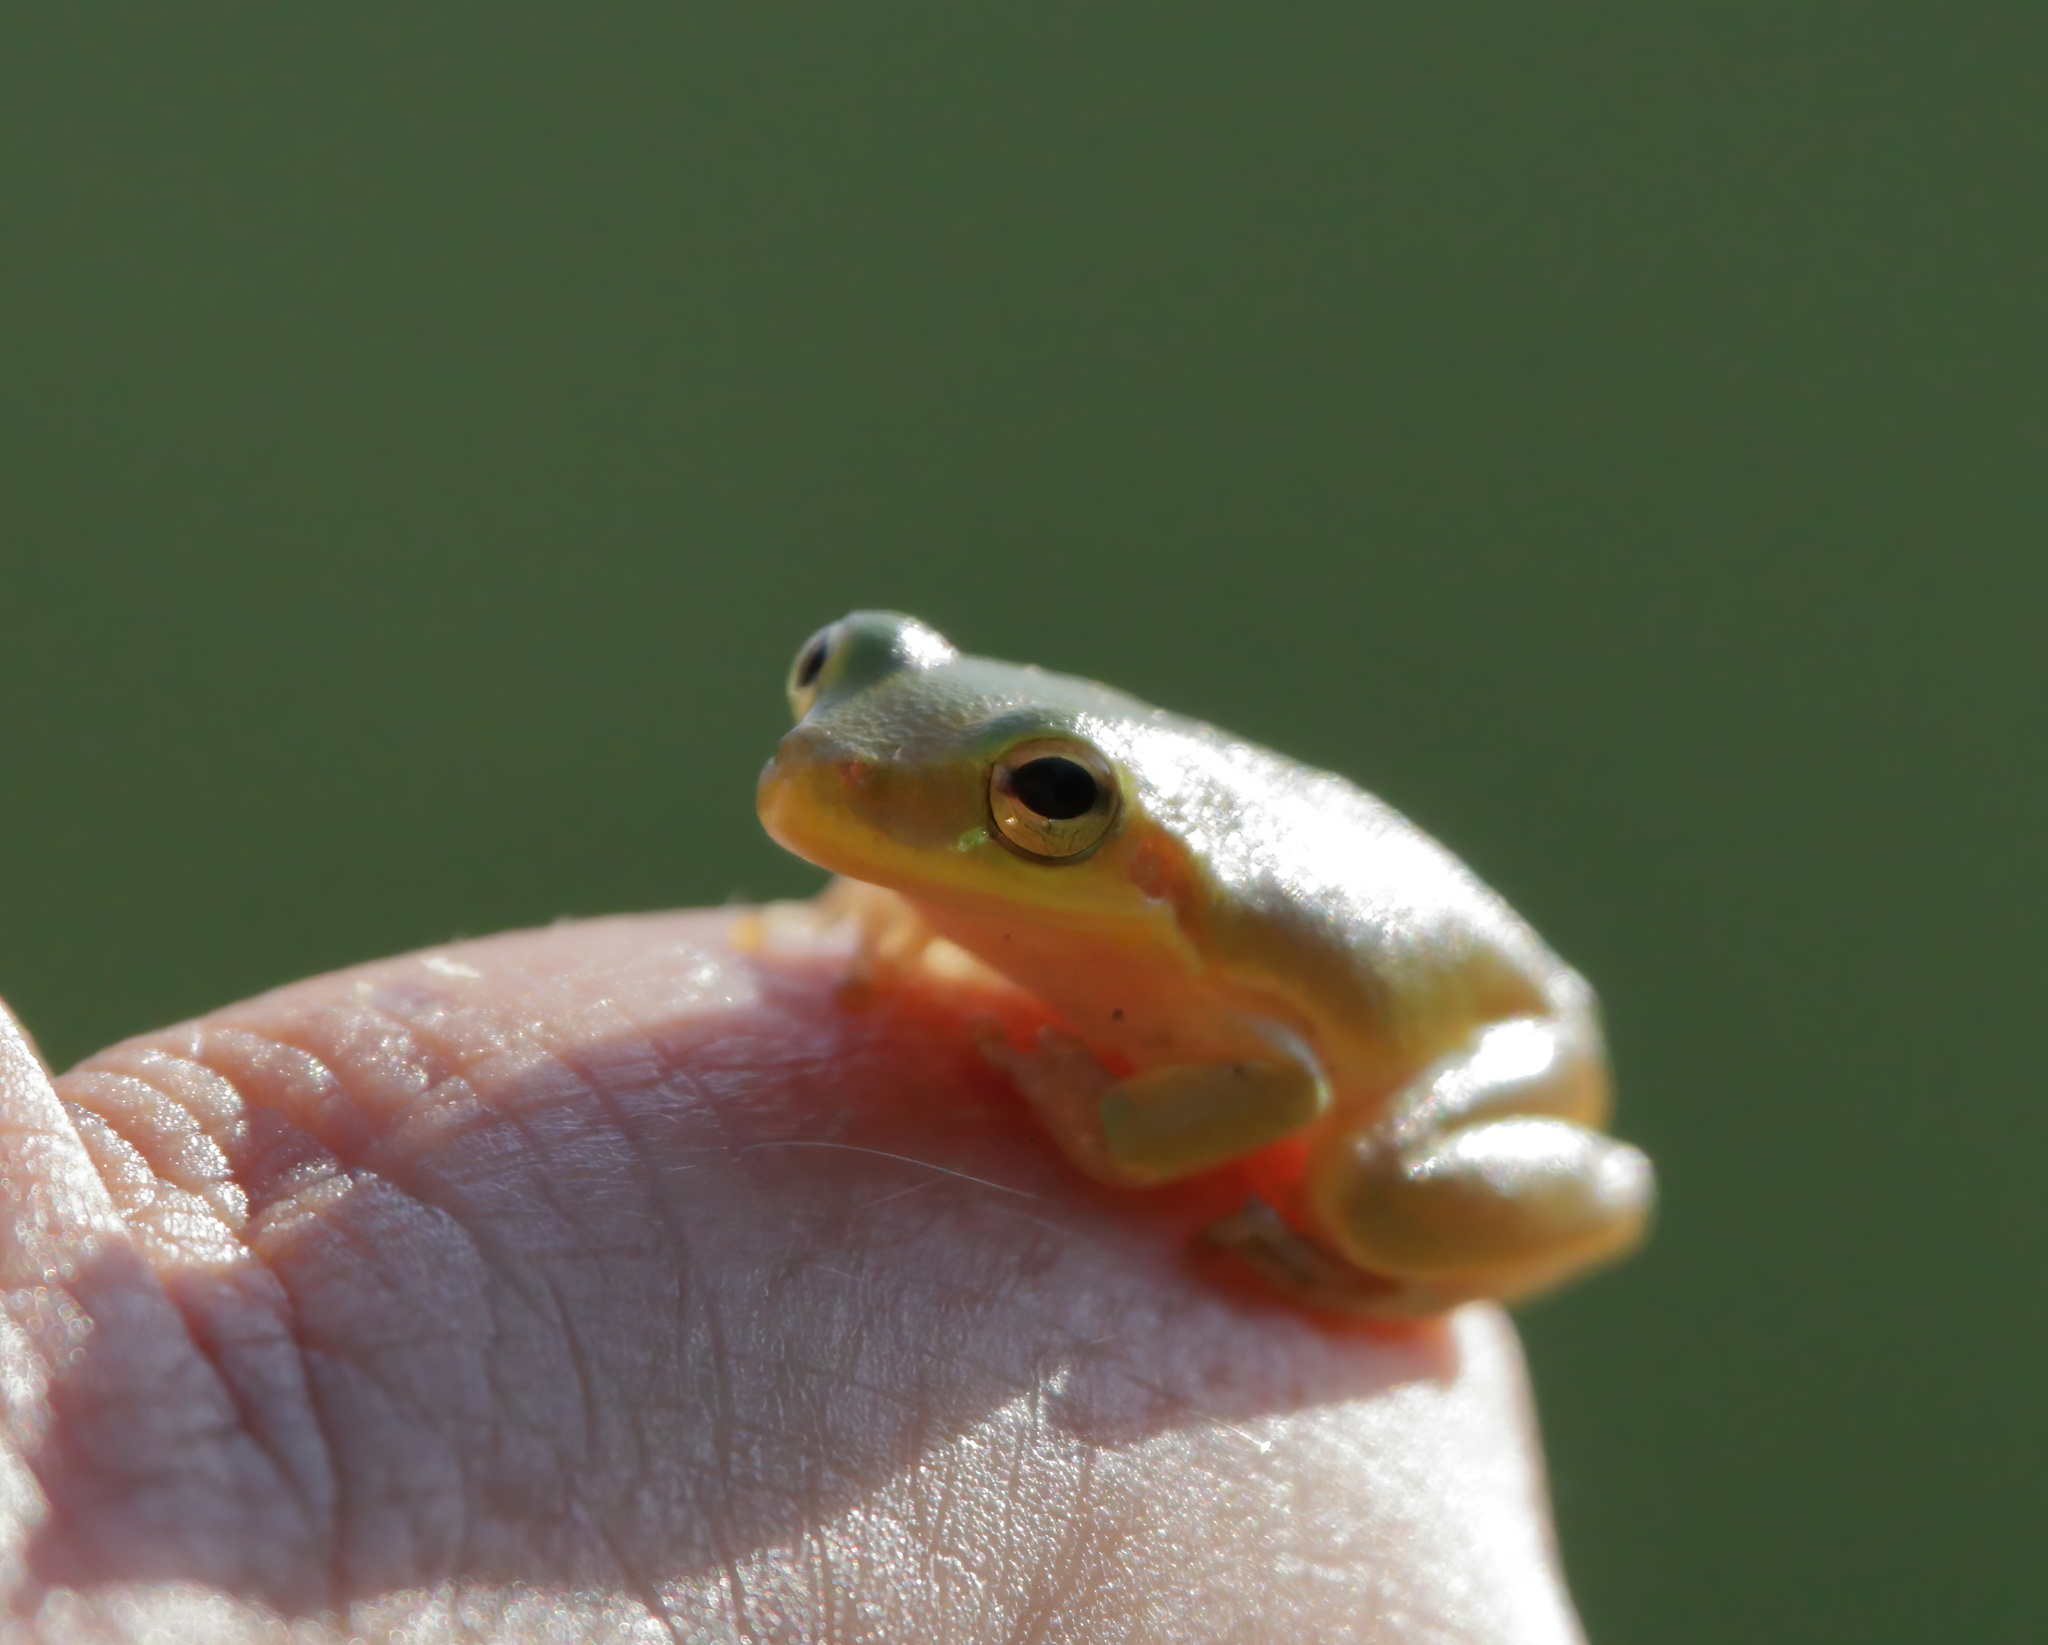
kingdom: Animalia
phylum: Chordata
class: Amphibia
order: Anura
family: Hylidae
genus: Dryophytes
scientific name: Dryophytes squirellus
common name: Squirrel treefrog
